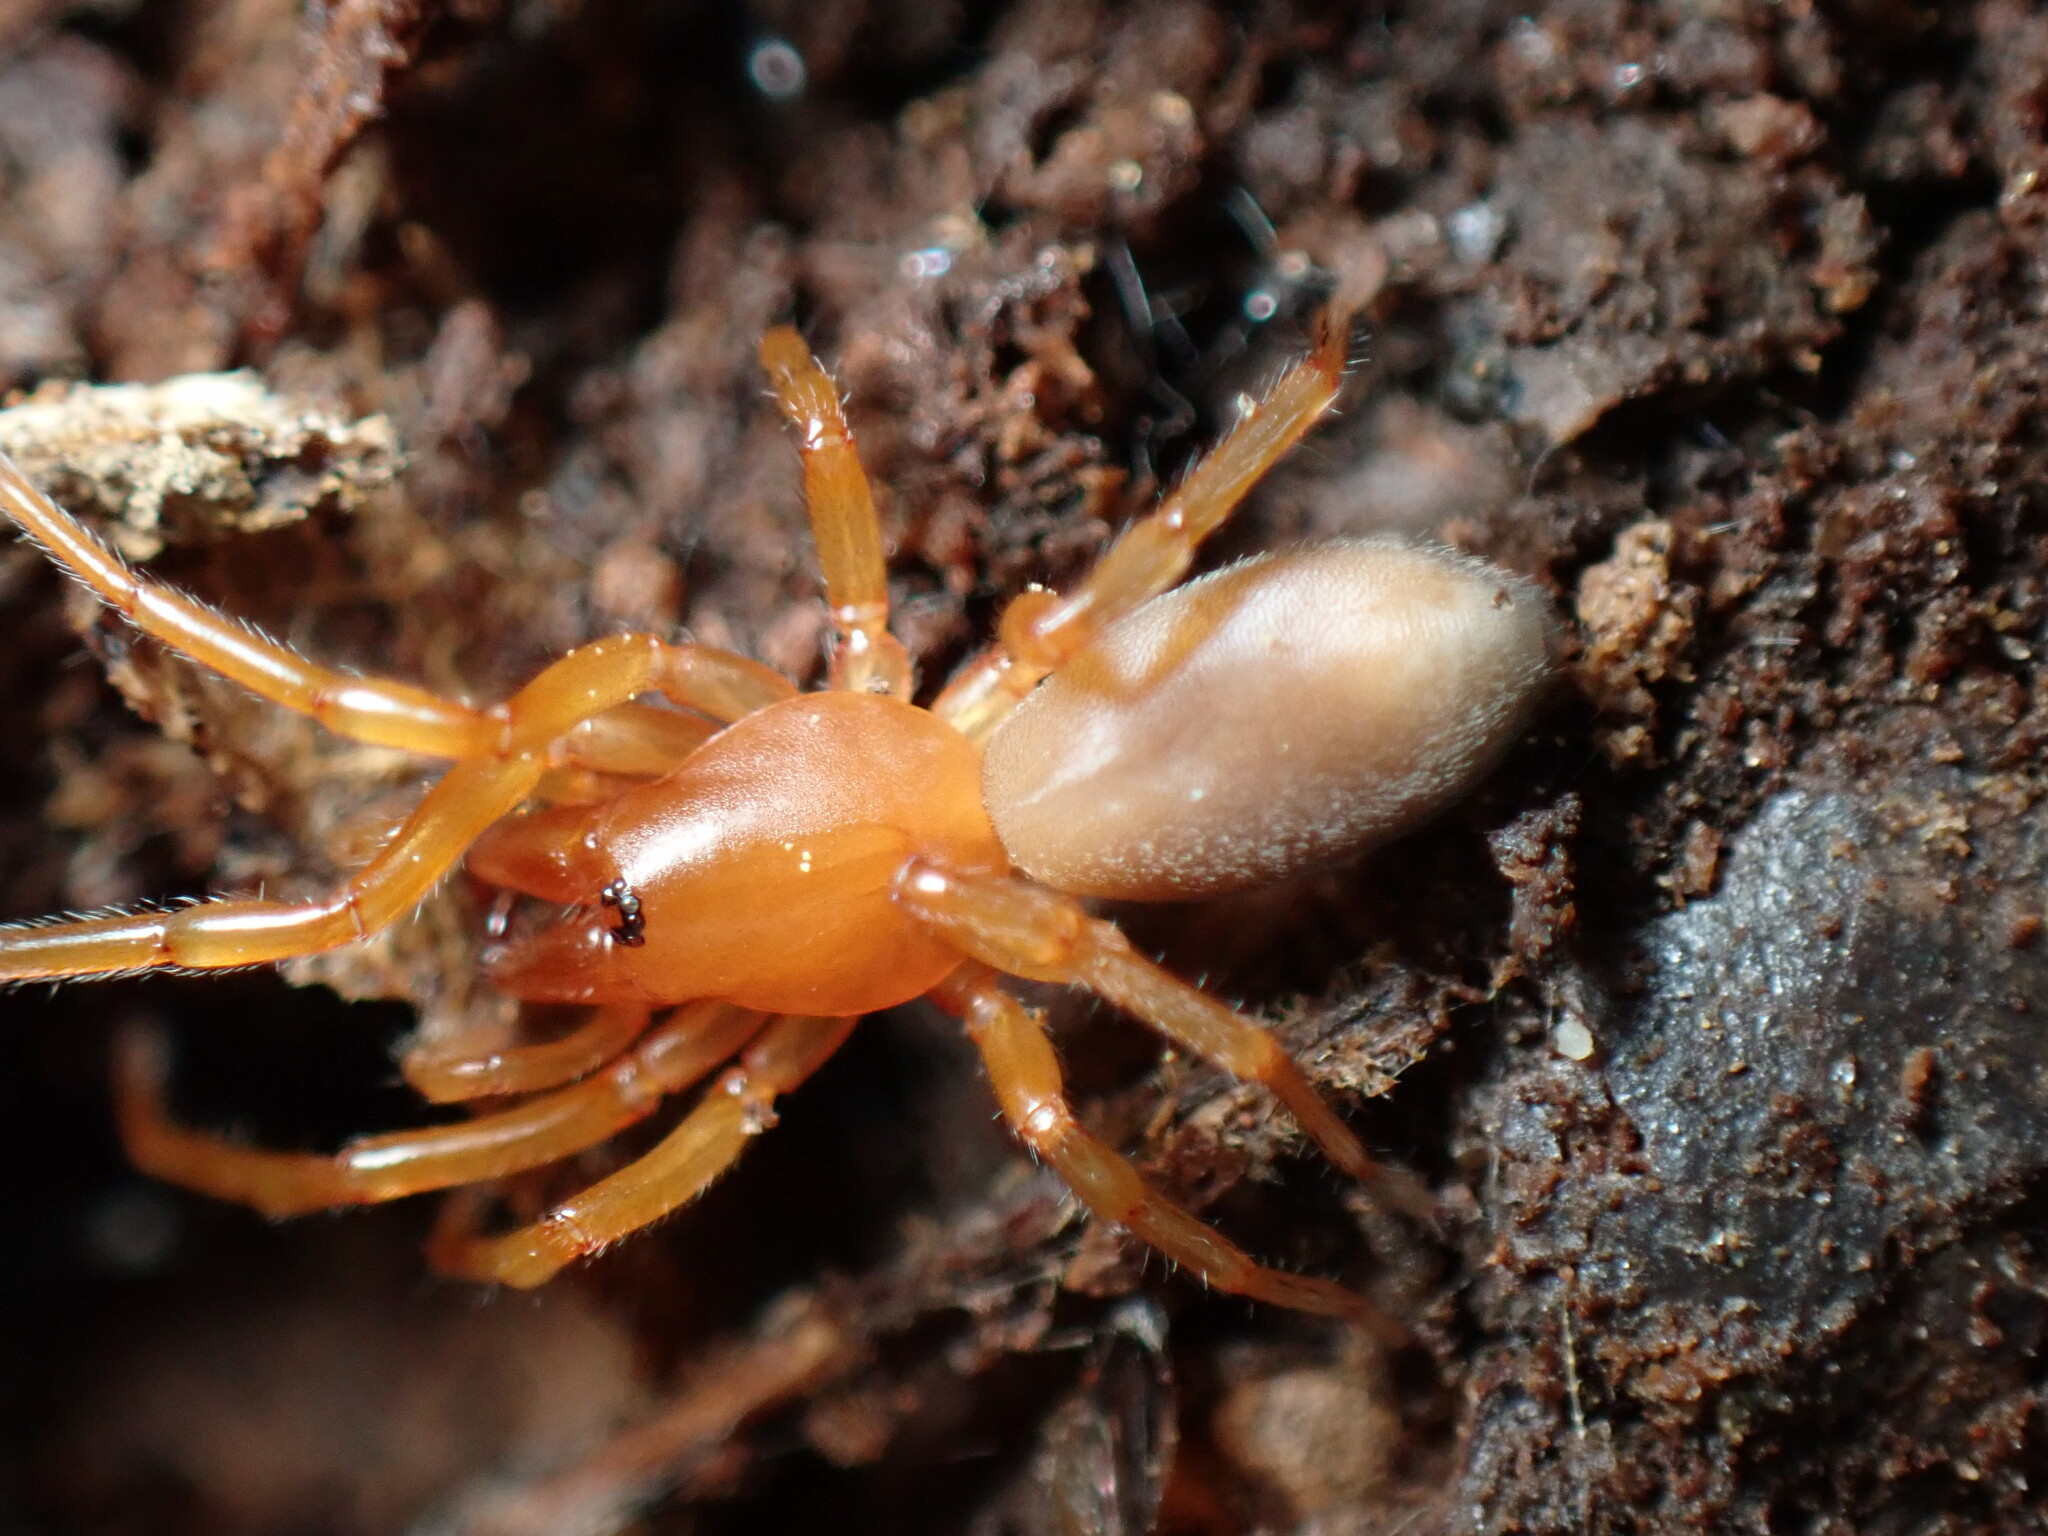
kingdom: Animalia
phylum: Arthropoda
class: Arachnida
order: Araneae
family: Dysderidae
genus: Dysdera
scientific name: Dysdera crocata
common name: Woodlouse spider
